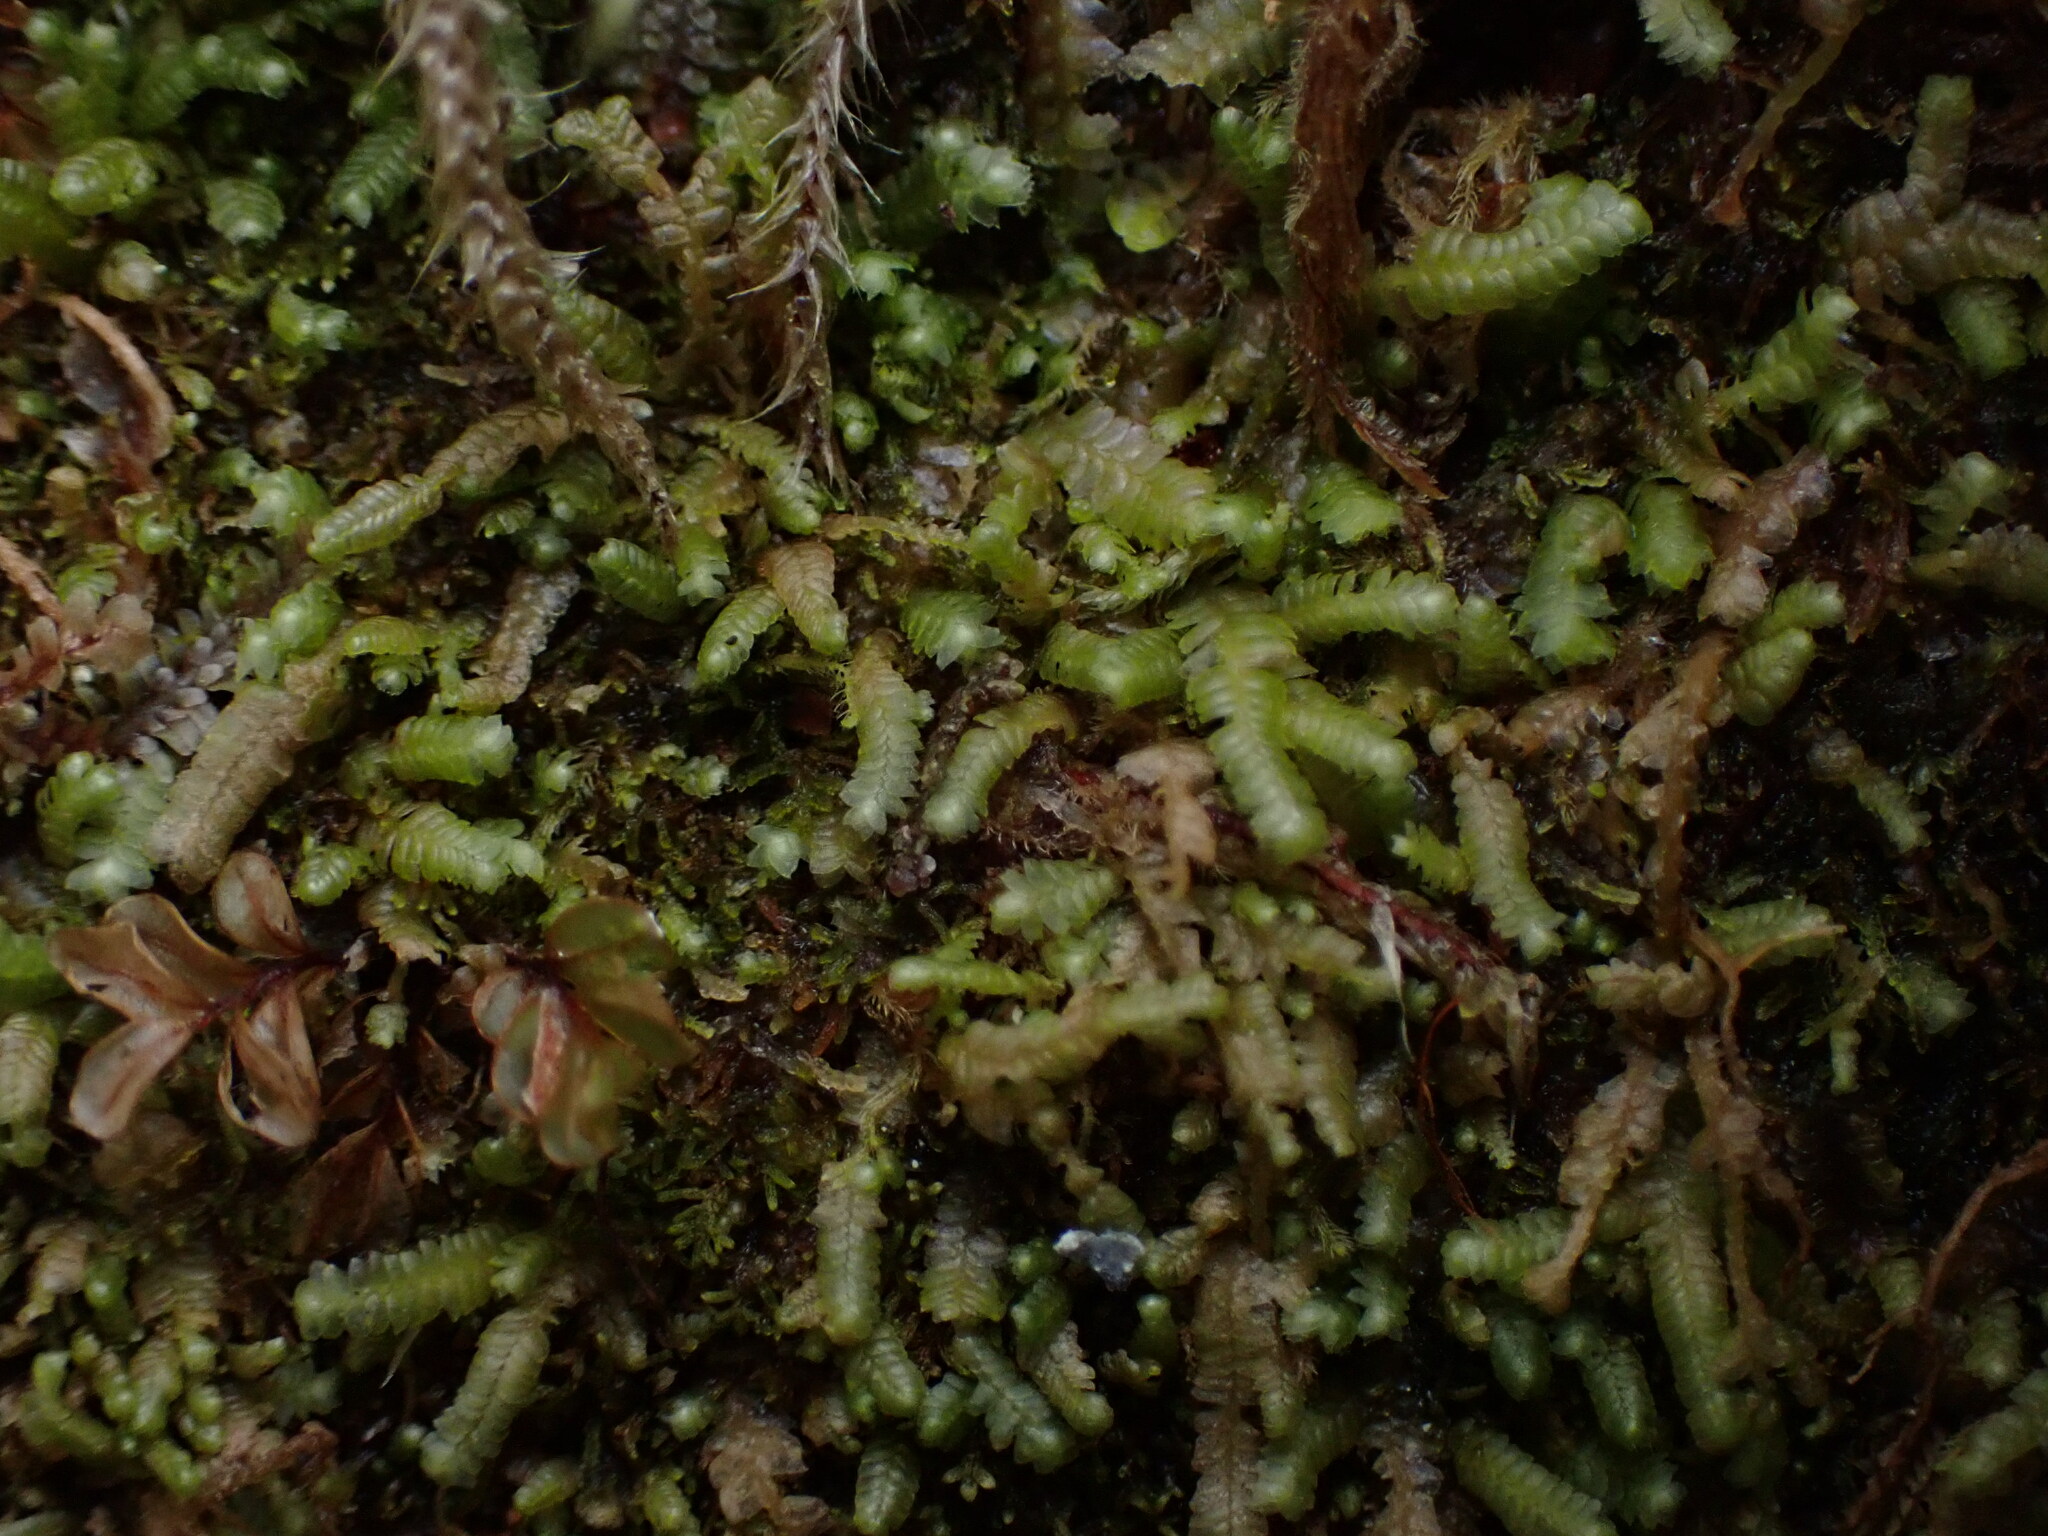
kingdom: Plantae
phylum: Marchantiophyta
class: Jungermanniopsida
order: Jungermanniales
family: Lepidoziaceae
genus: Bazzania
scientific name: Bazzania denudata
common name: Naked whipwort
